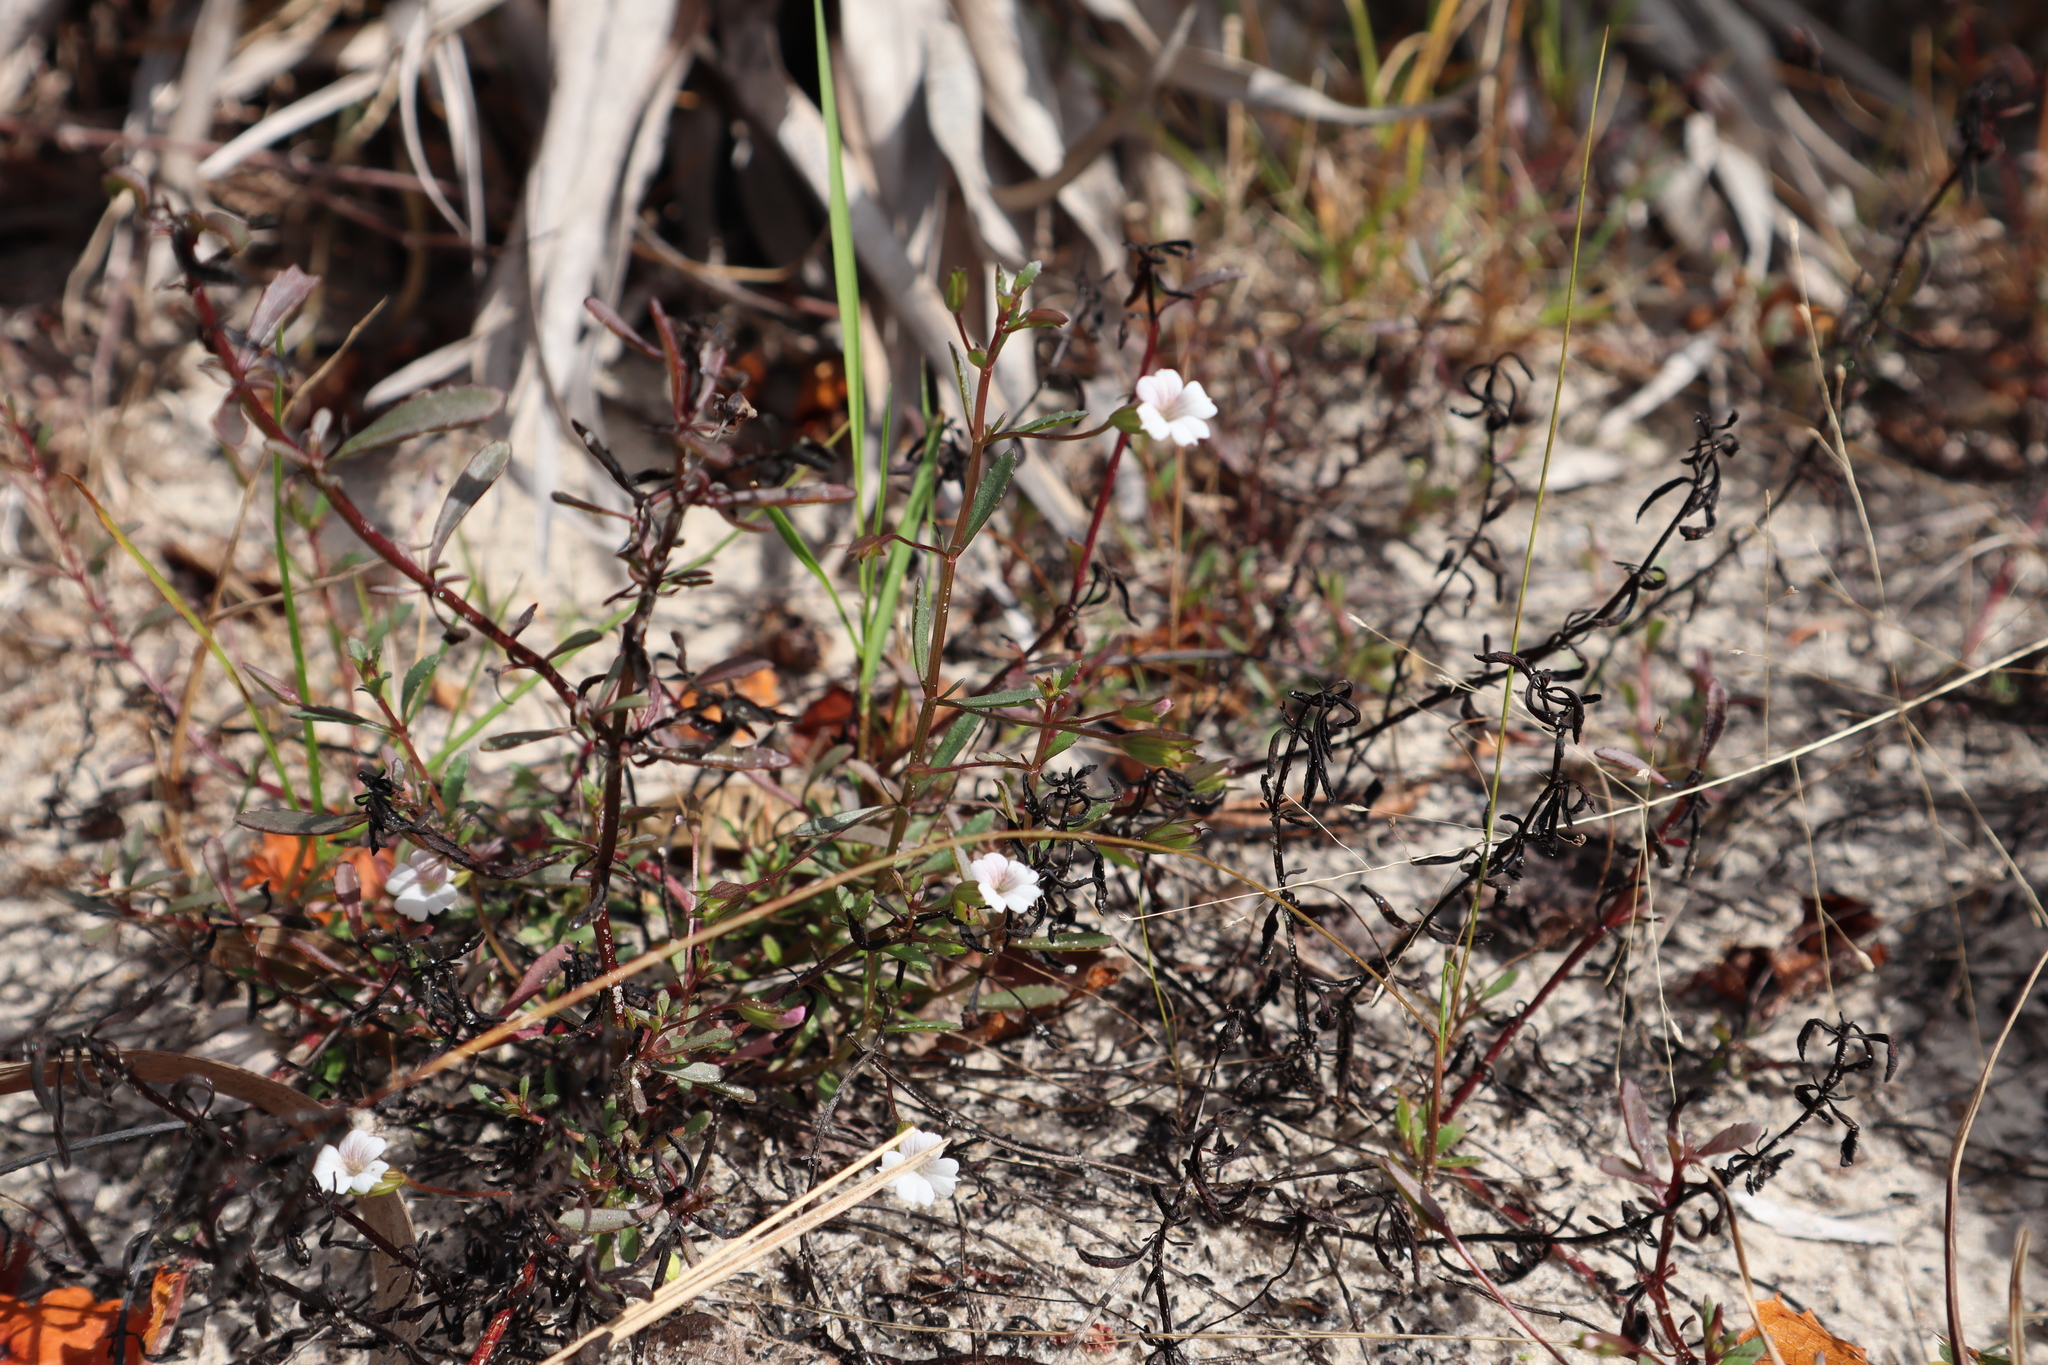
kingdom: Plantae
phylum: Tracheophyta
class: Magnoliopsida
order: Lamiales
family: Plantaginaceae
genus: Mecardonia
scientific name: Mecardonia acuminata
